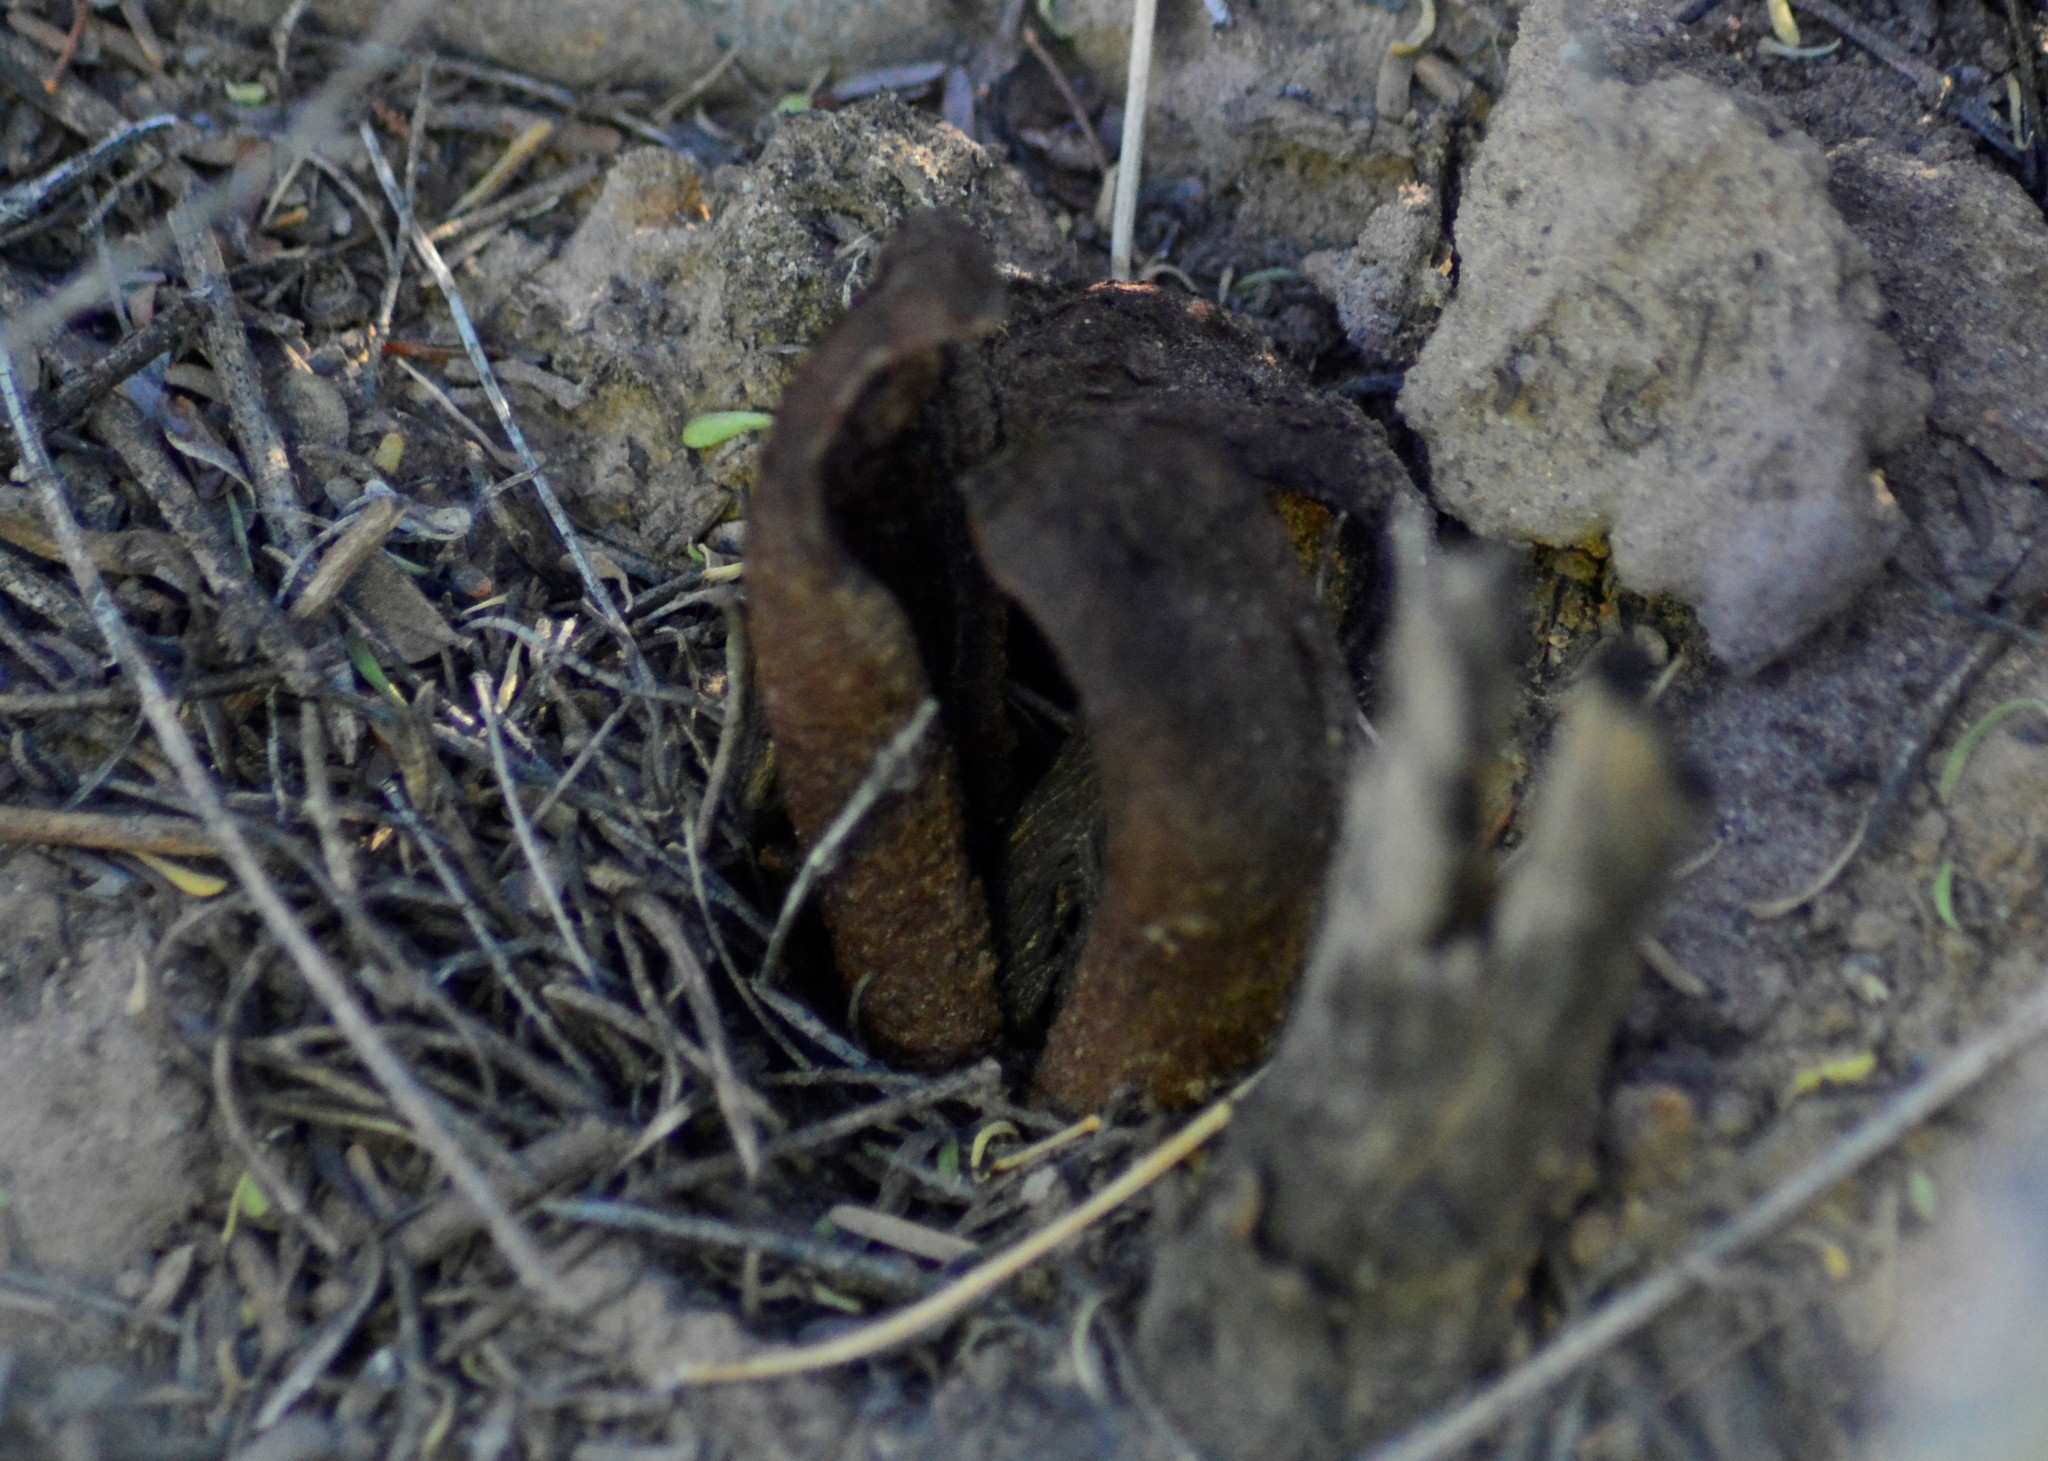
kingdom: Plantae
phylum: Tracheophyta
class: Magnoliopsida
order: Piperales
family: Hydnoraceae
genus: Prosopanche
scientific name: Prosopanche americana
